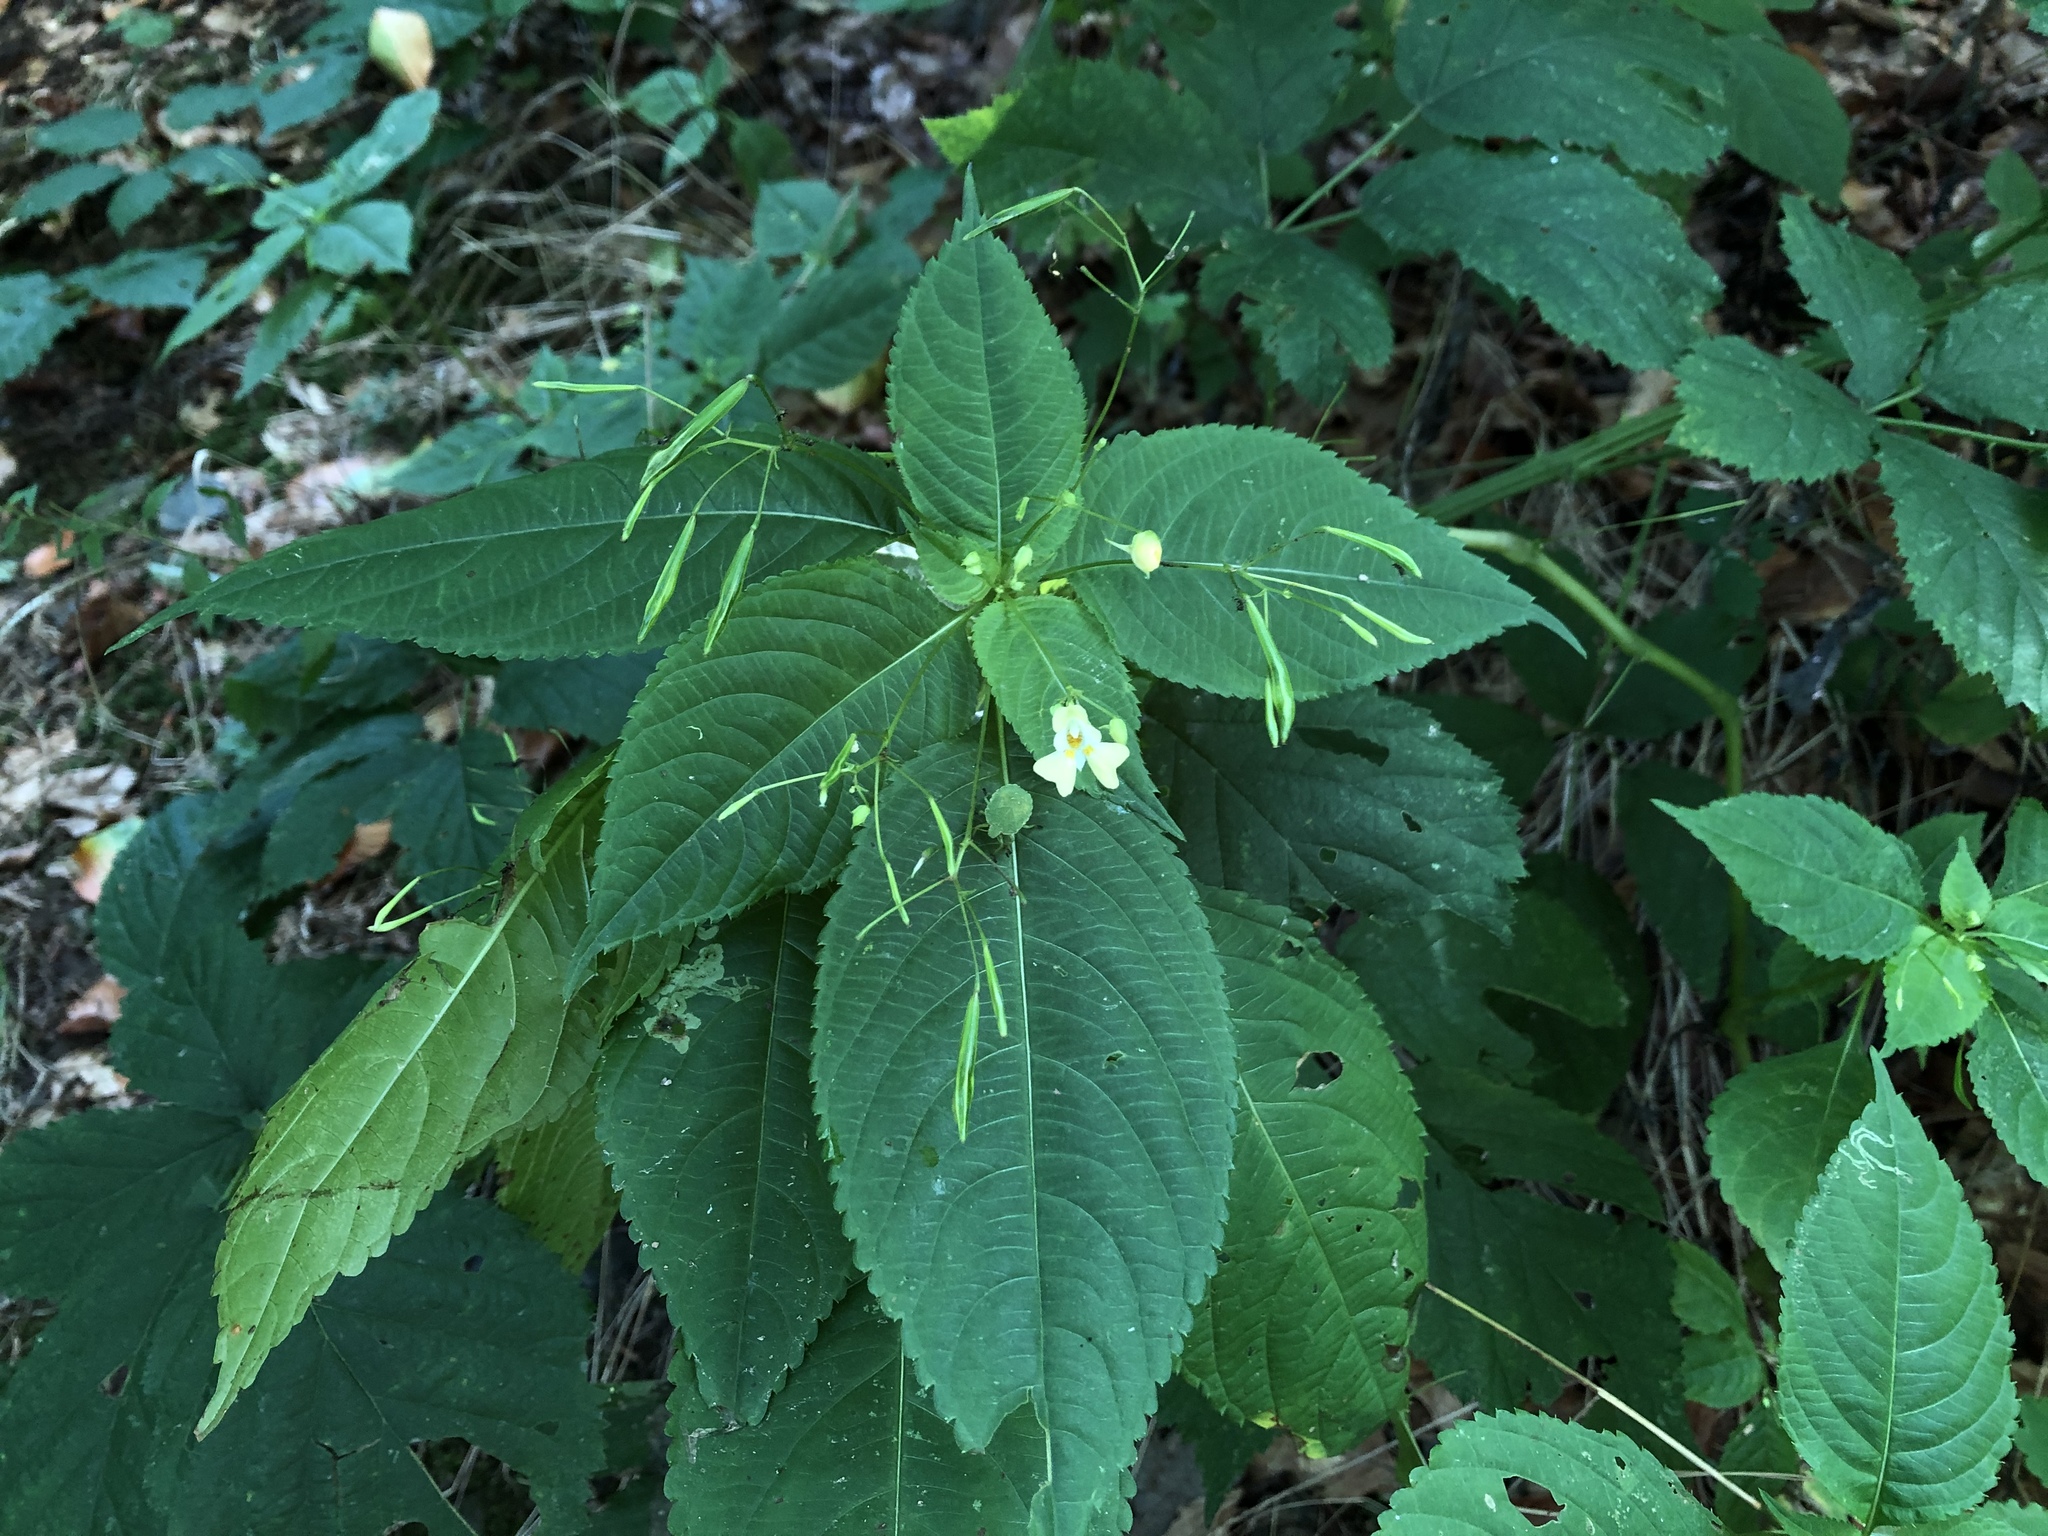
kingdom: Plantae
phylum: Tracheophyta
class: Magnoliopsida
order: Ericales
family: Balsaminaceae
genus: Impatiens
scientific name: Impatiens parviflora
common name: Small balsam
